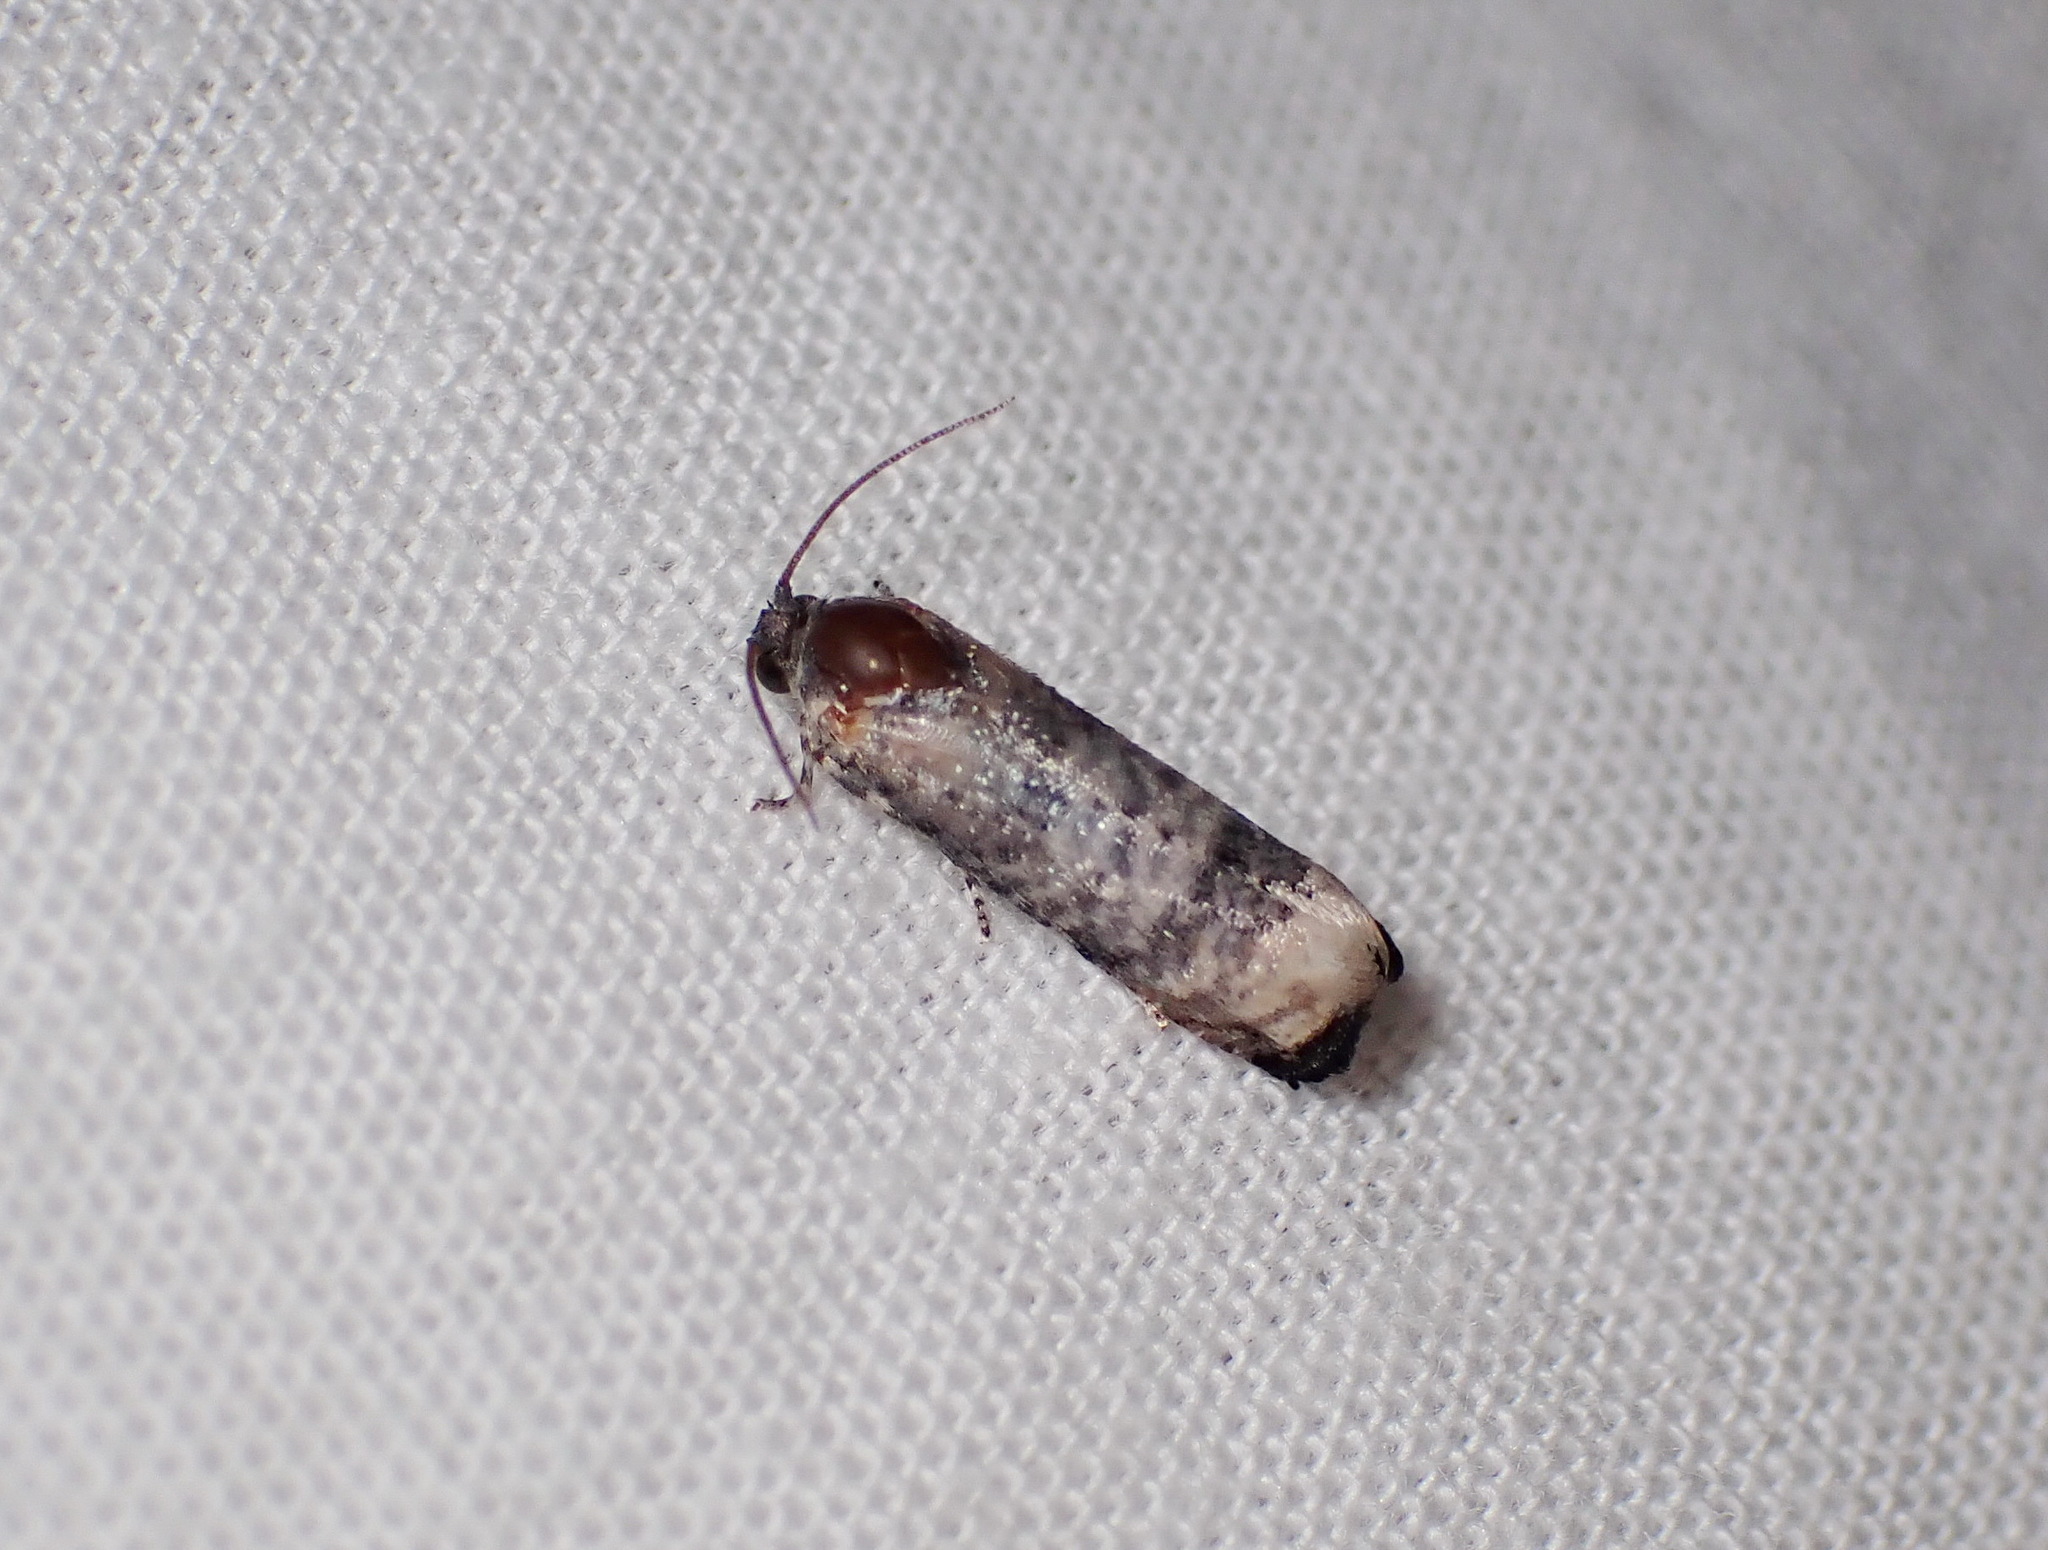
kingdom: Animalia
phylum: Arthropoda
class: Insecta
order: Lepidoptera
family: Tortricidae
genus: Epiblema
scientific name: Epiblema obfuscana
